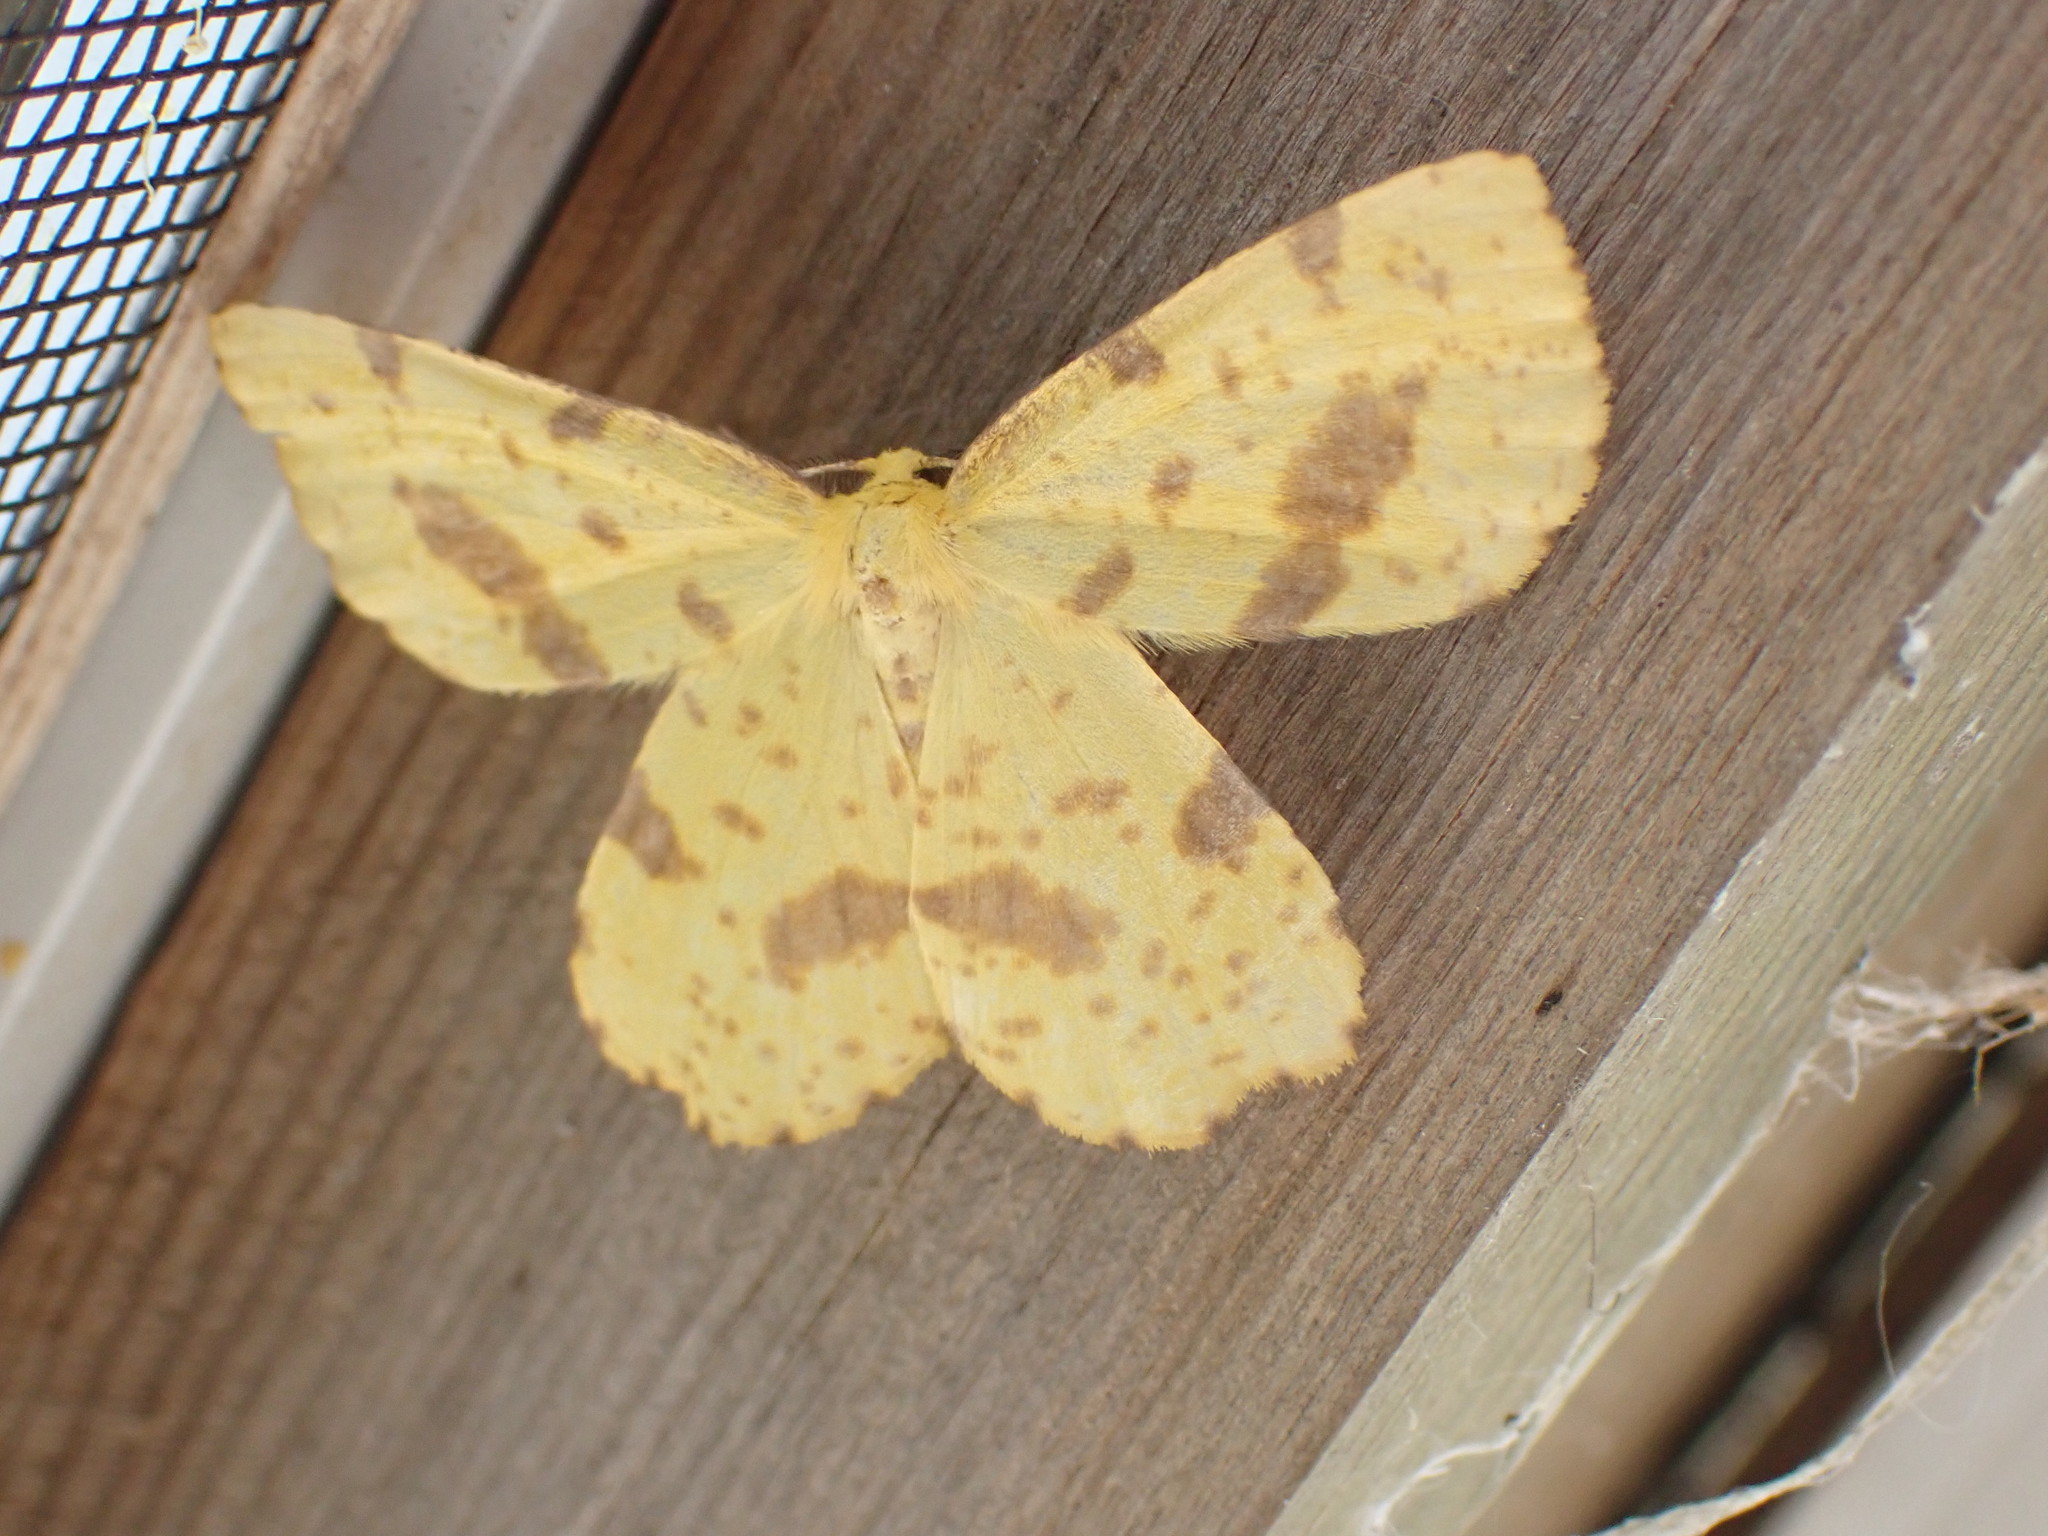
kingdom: Animalia
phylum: Arthropoda
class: Insecta
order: Lepidoptera
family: Geometridae
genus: Xanthotype
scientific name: Xanthotype
